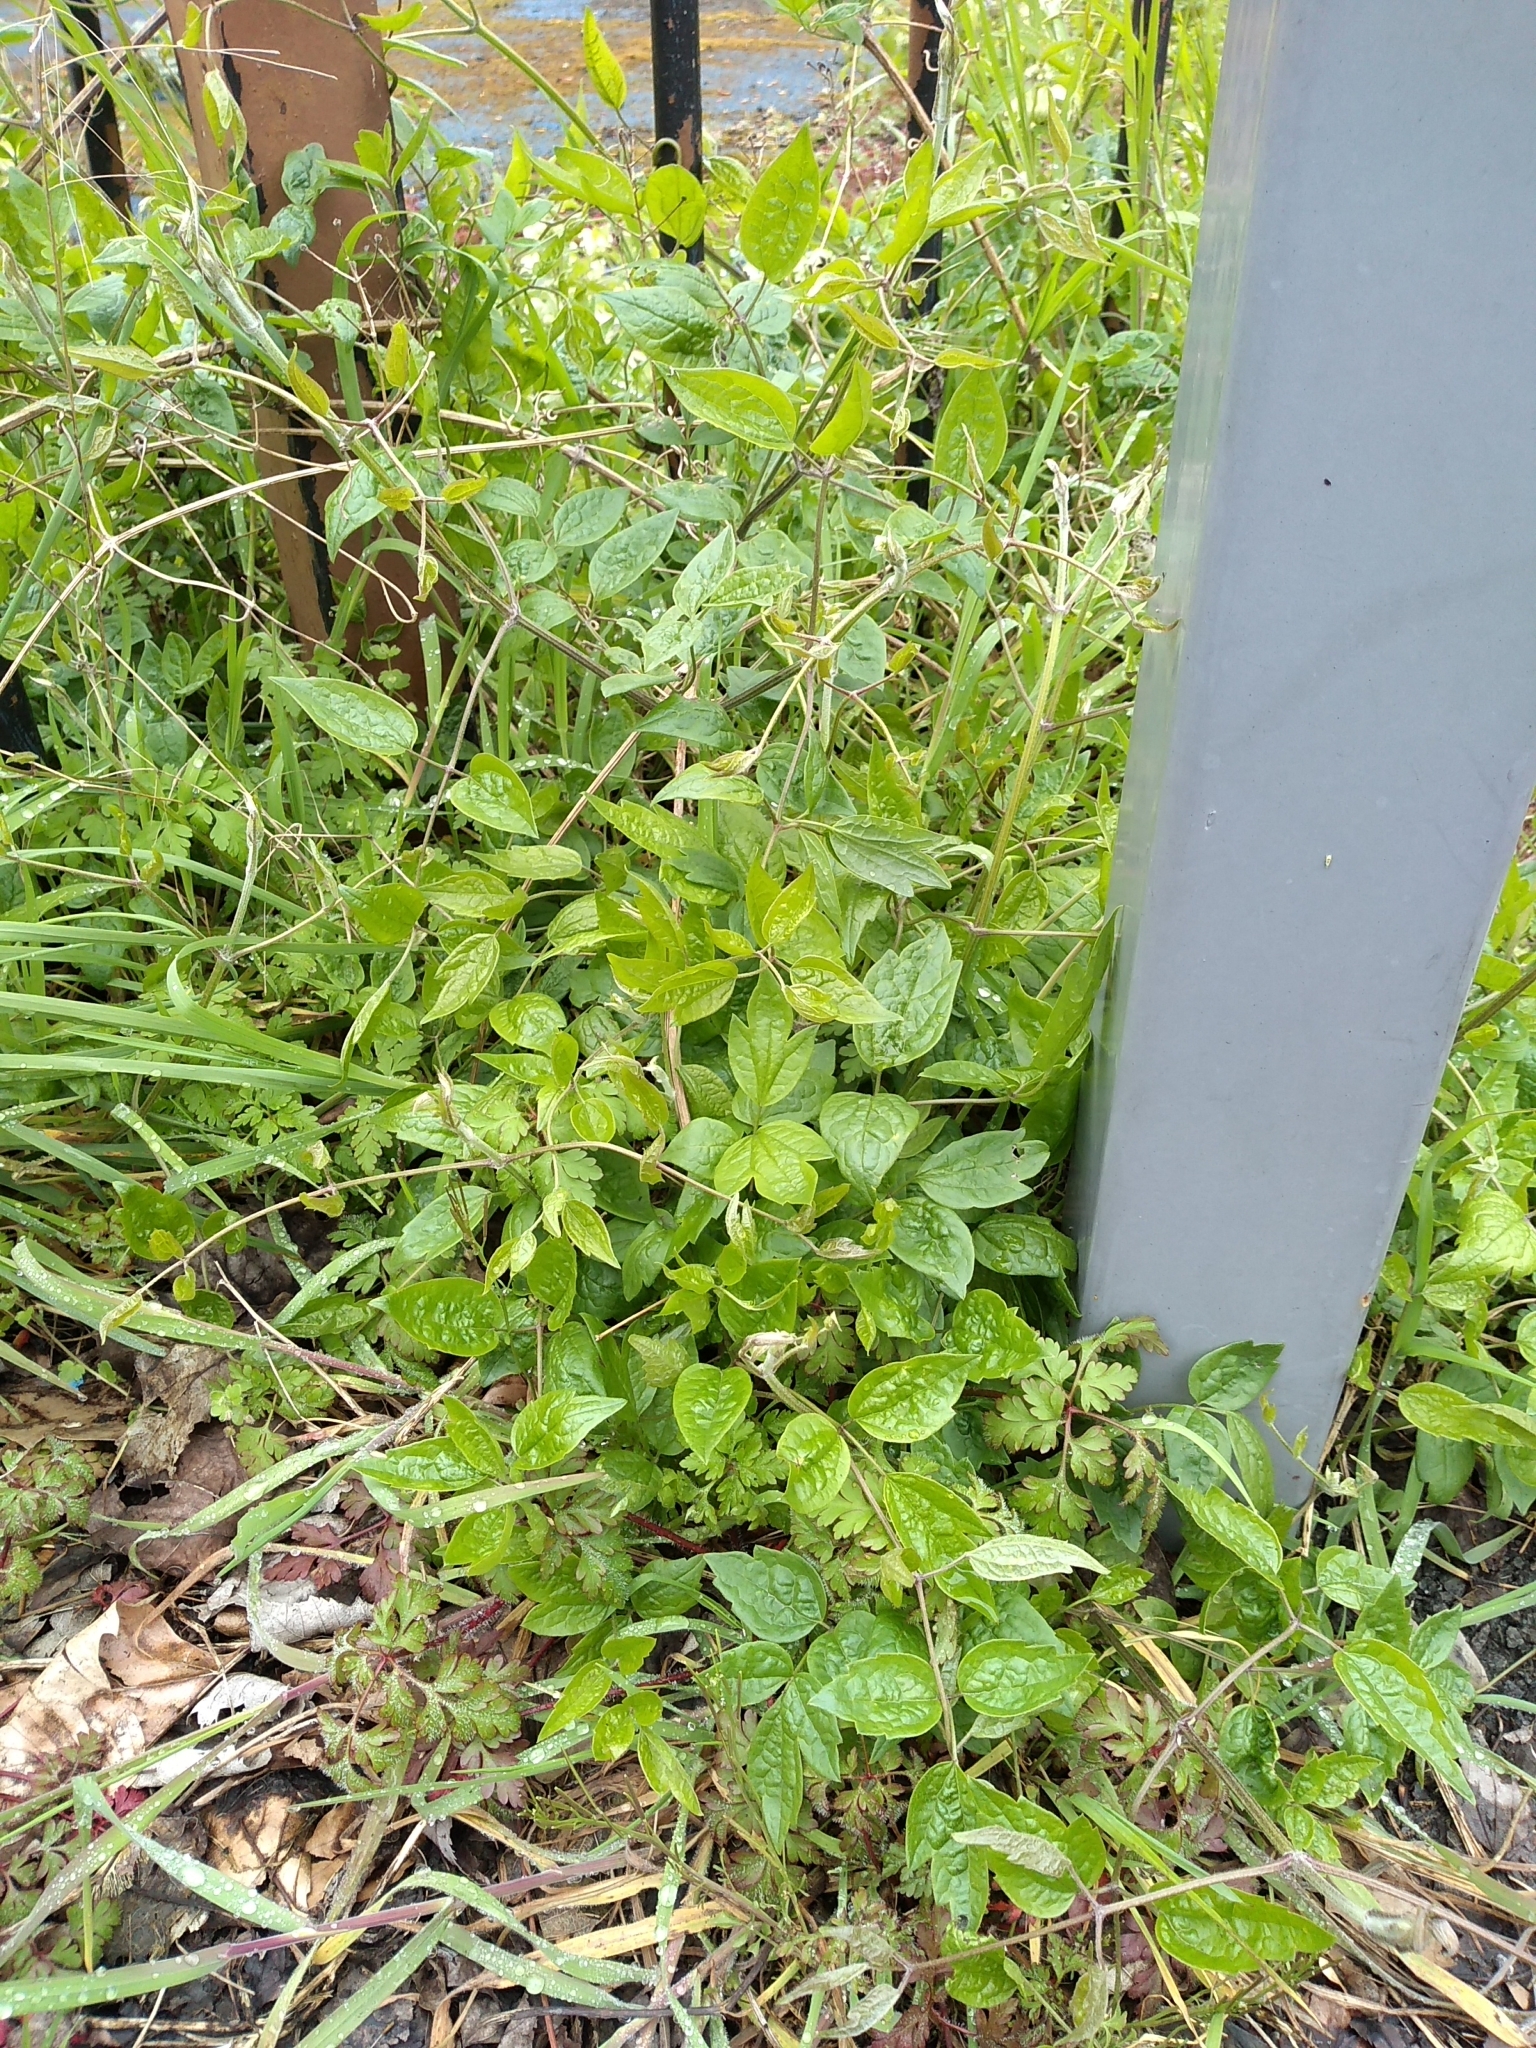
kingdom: Plantae
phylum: Tracheophyta
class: Magnoliopsida
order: Ranunculales
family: Ranunculaceae
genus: Clematis
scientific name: Clematis vitalba
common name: Evergreen clematis
